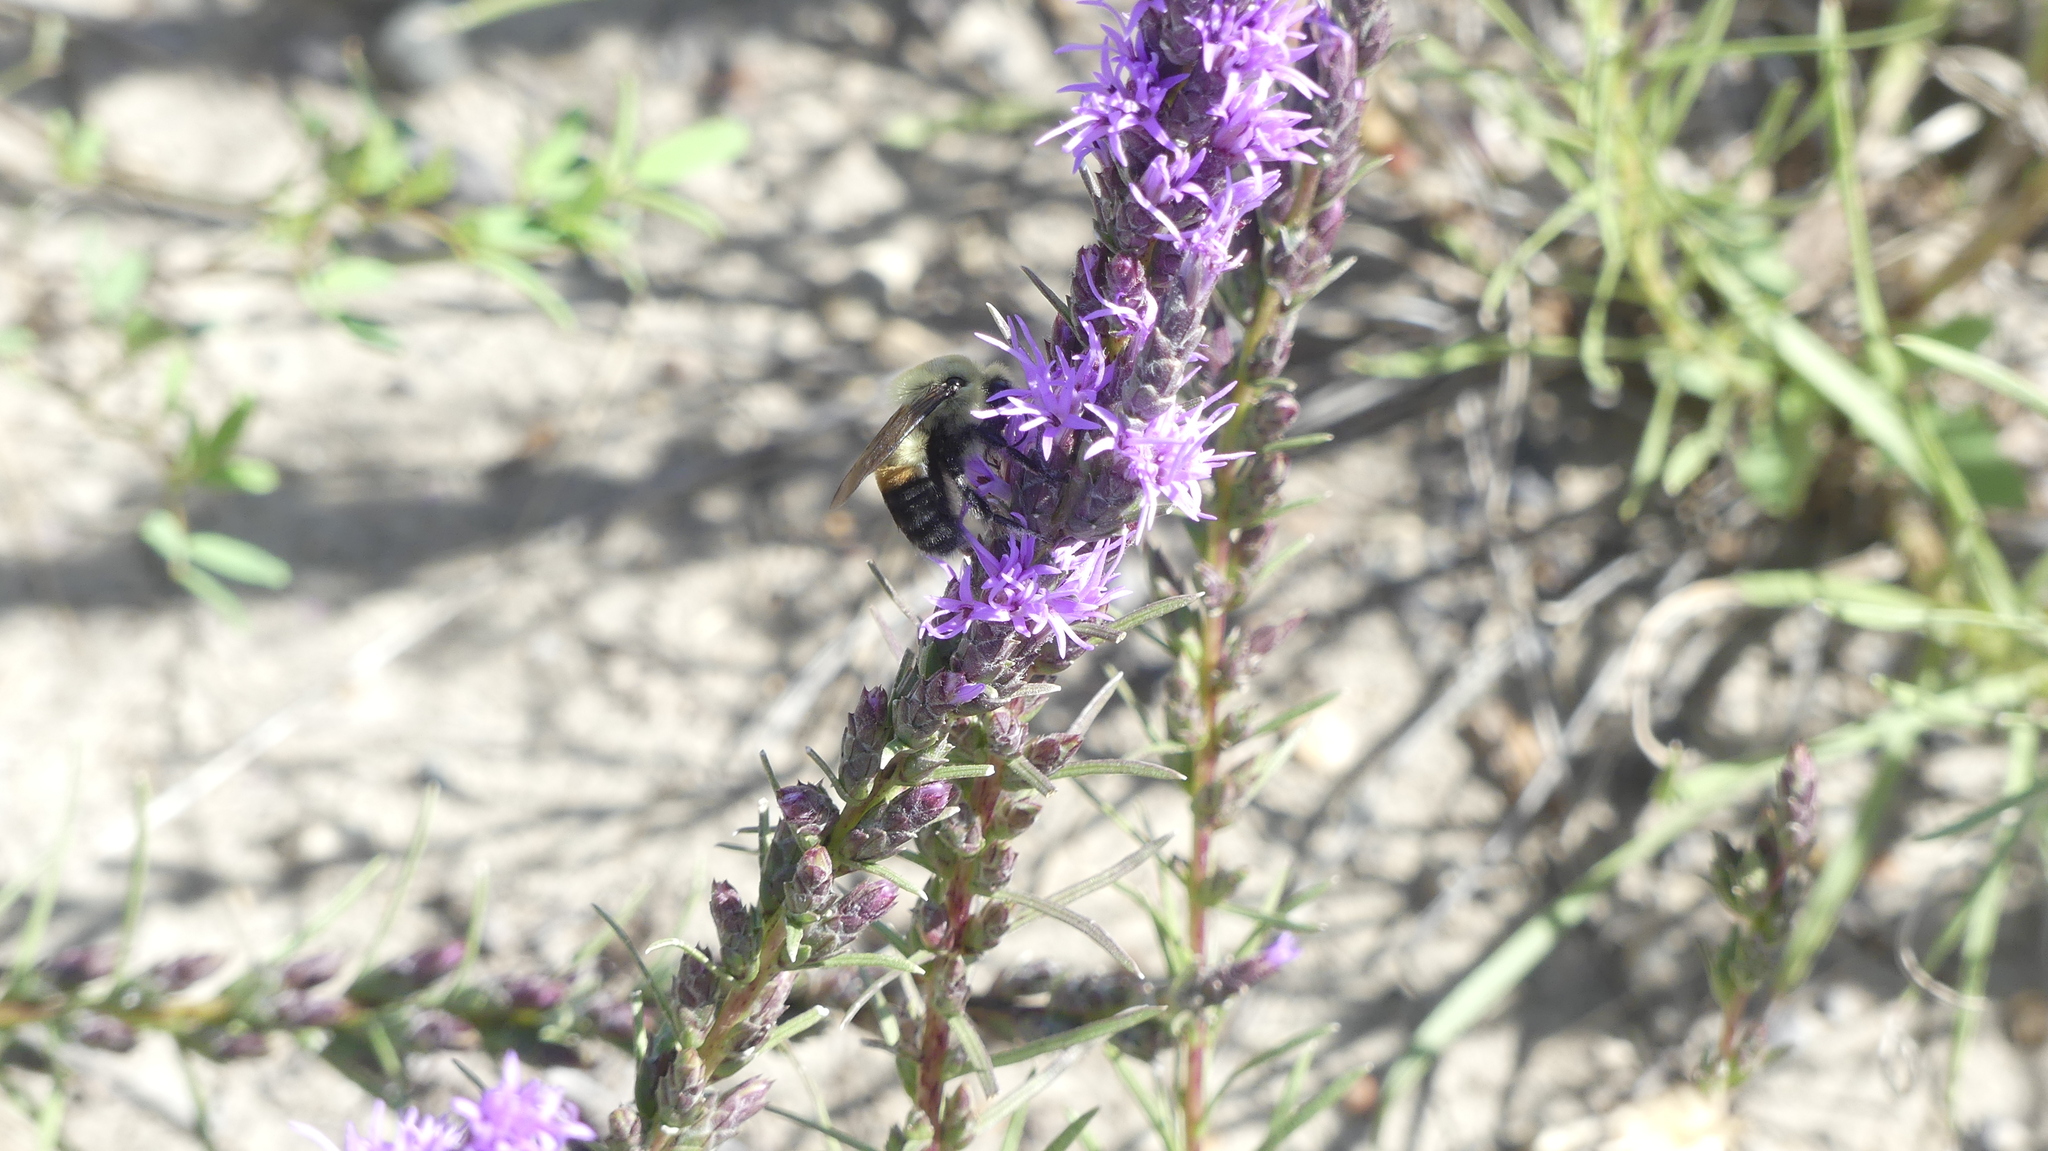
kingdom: Animalia
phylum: Arthropoda
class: Insecta
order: Hymenoptera
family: Apidae
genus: Bombus
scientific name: Bombus griseocollis
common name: Brown-belted bumble bee
